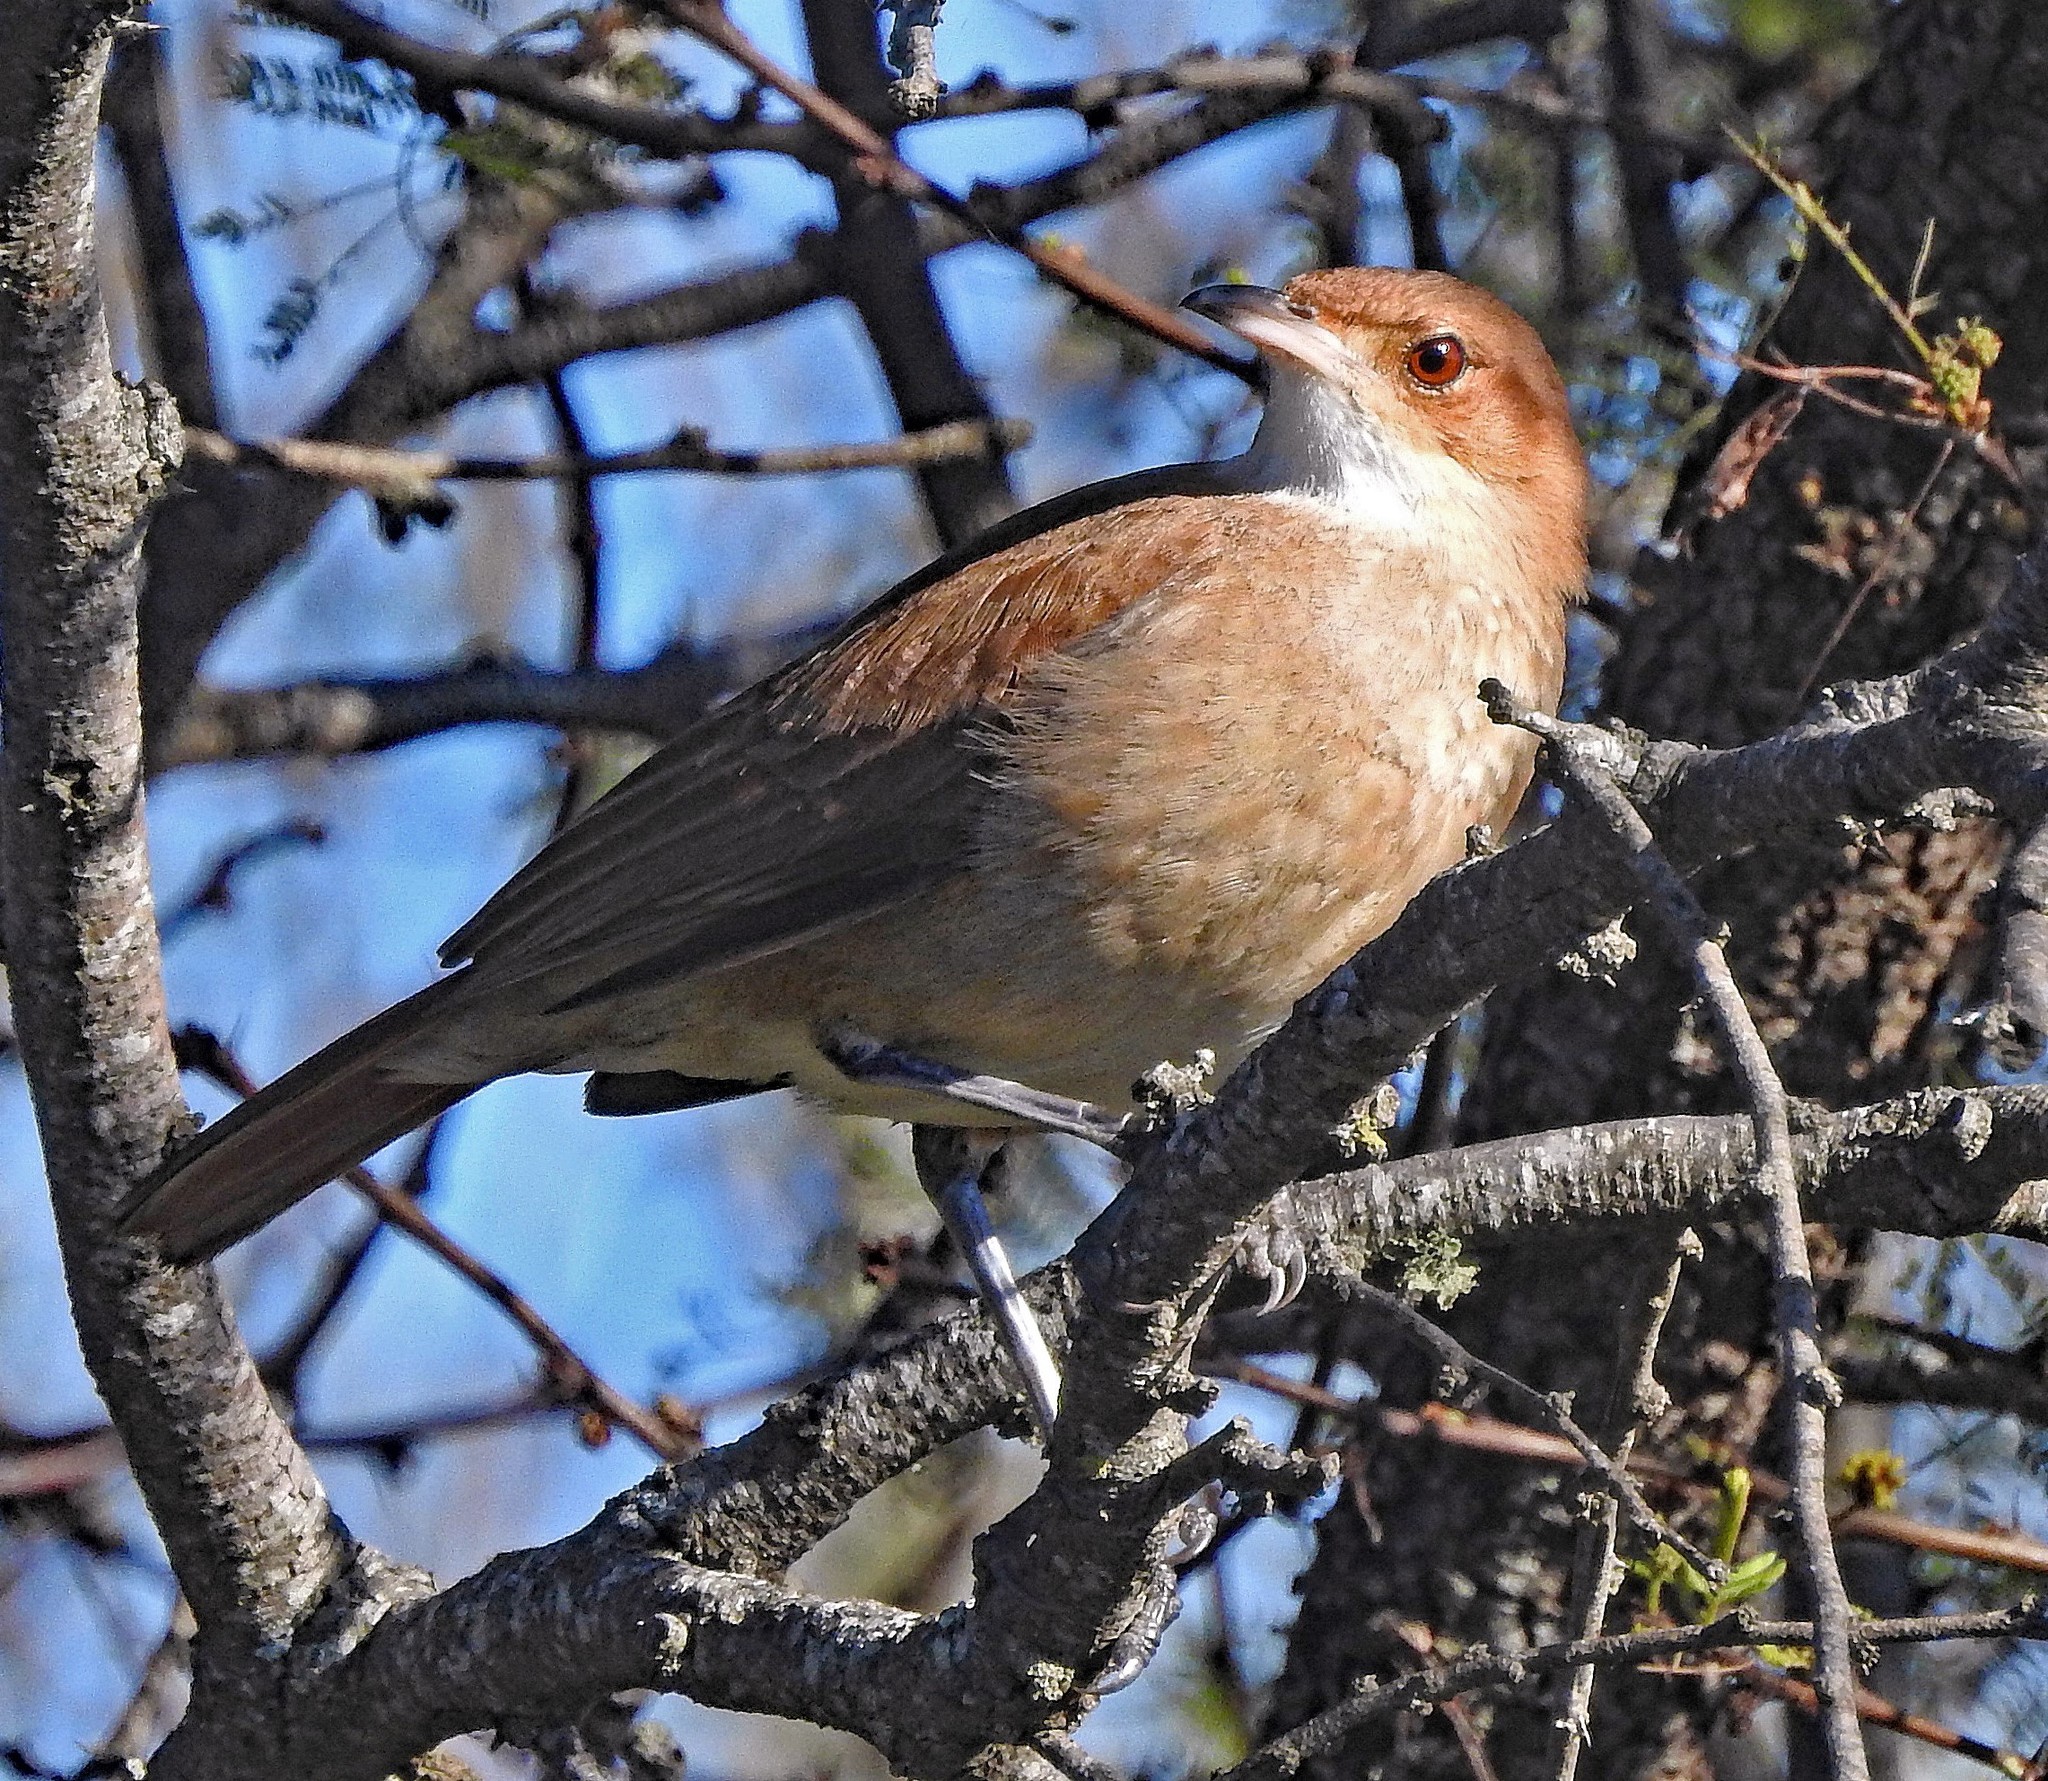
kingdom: Animalia
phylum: Chordata
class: Aves
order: Passeriformes
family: Furnariidae
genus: Furnarius
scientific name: Furnarius rufus
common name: Rufous hornero
